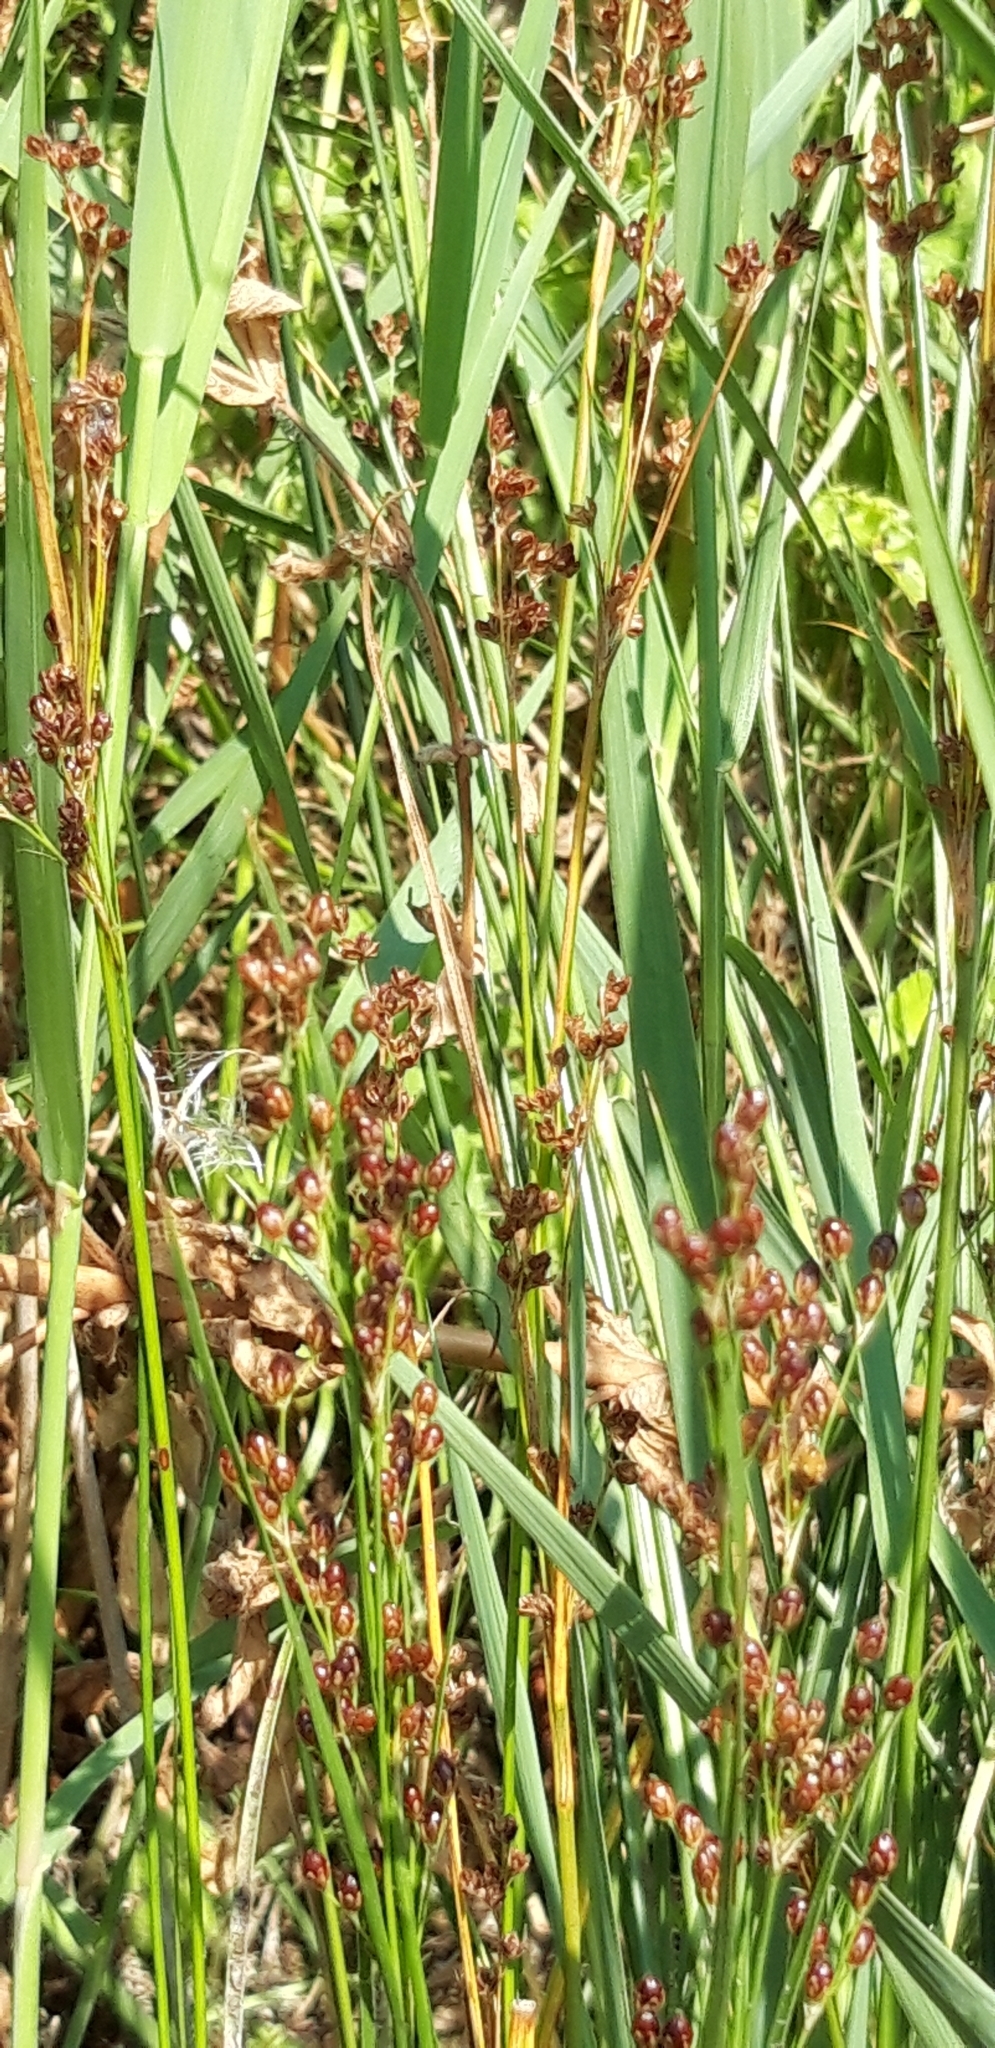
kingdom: Plantae
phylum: Tracheophyta
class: Liliopsida
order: Poales
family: Juncaceae
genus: Juncus
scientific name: Juncus gerardi
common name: Saltmarsh rush
